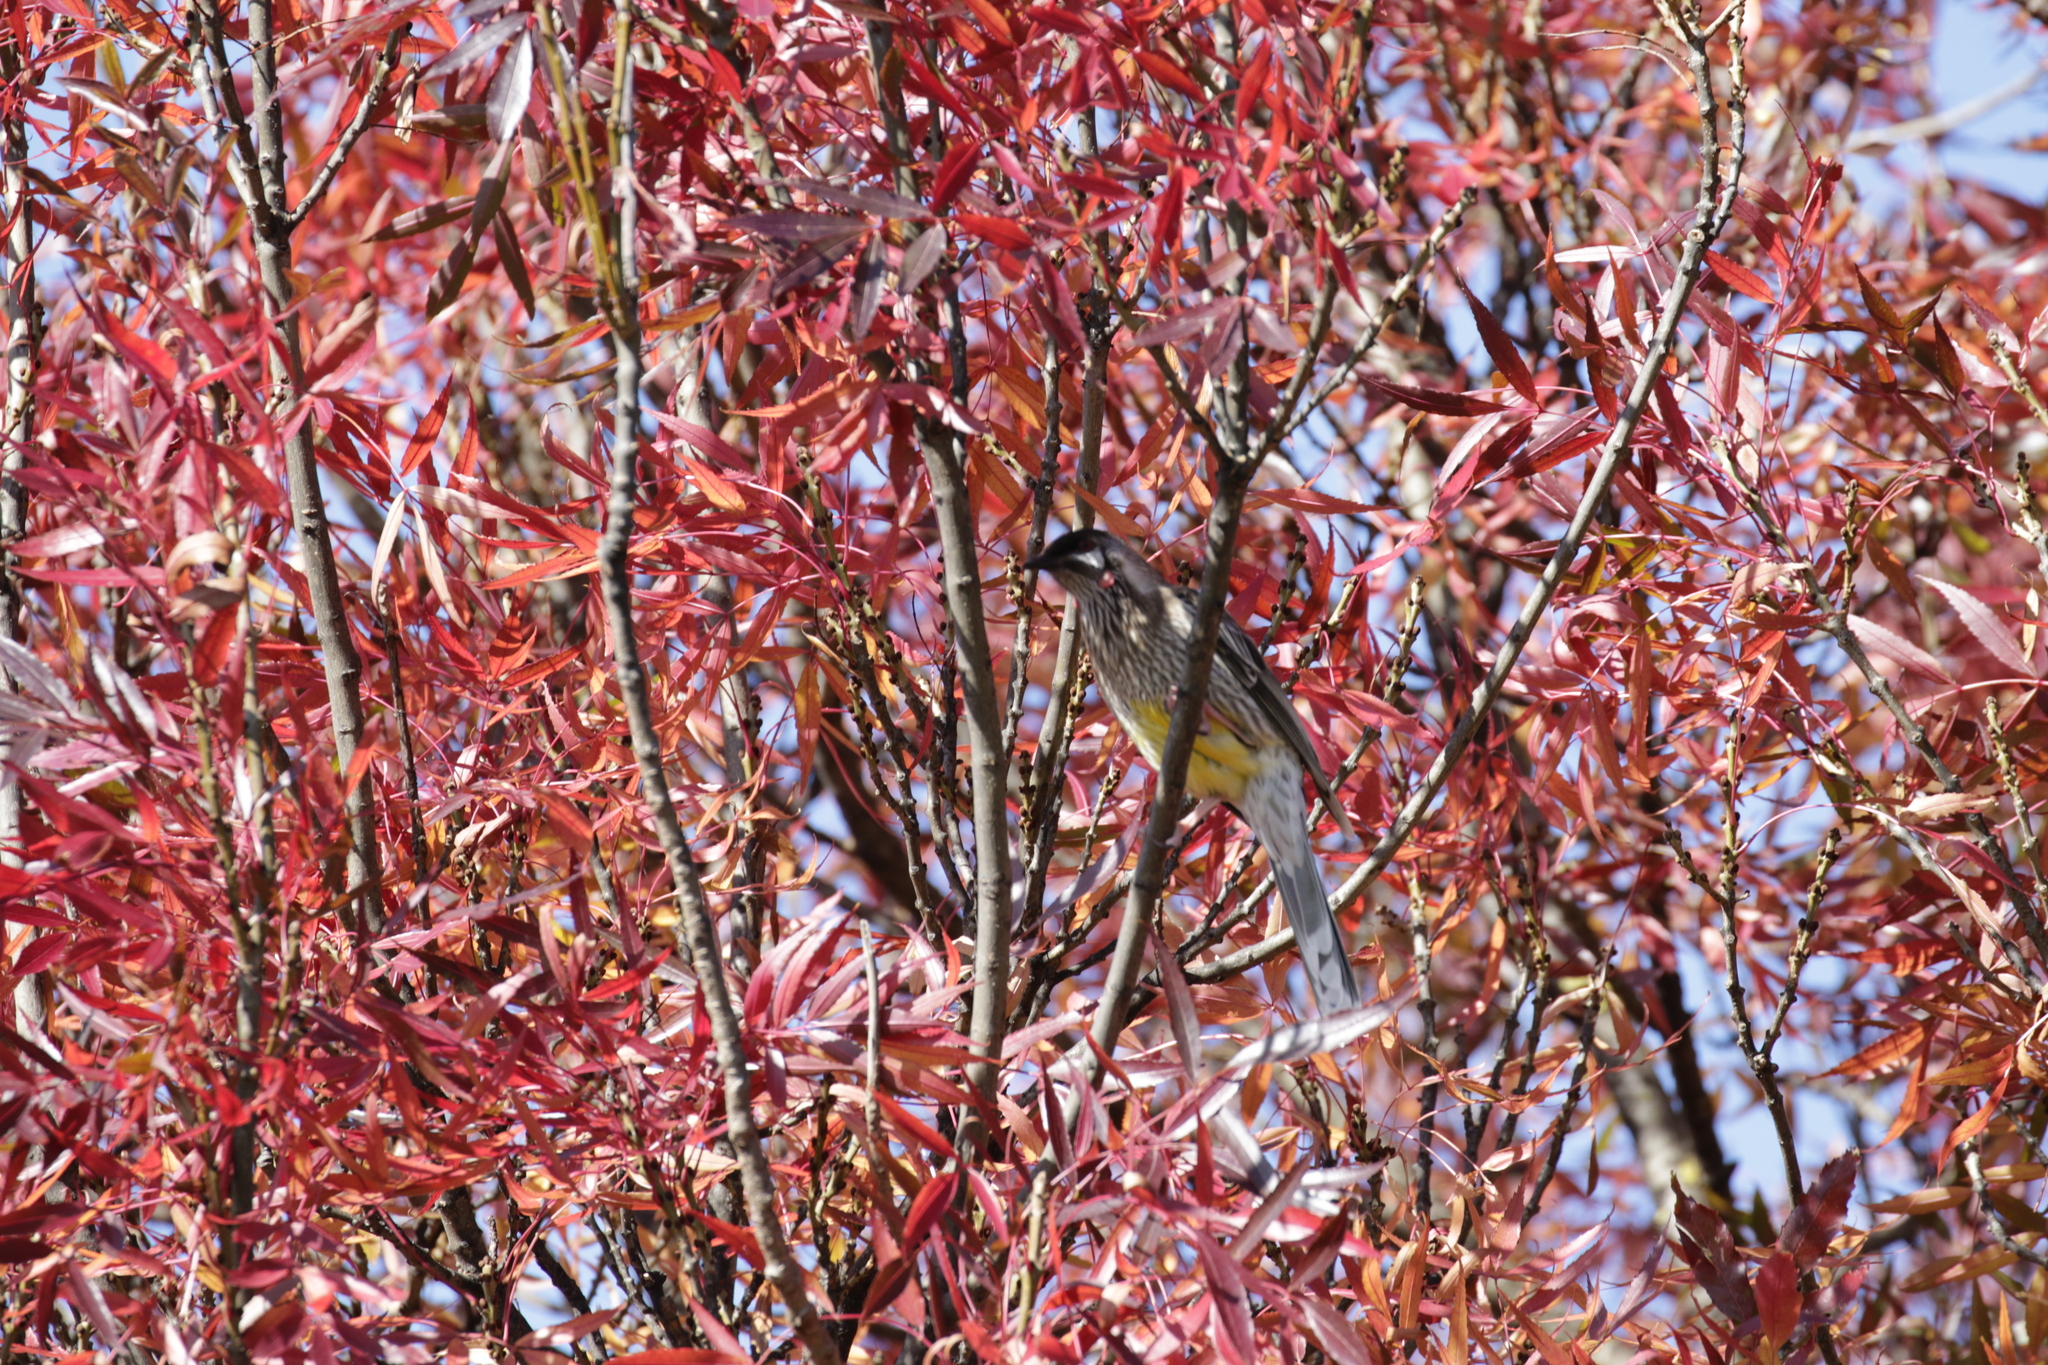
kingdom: Animalia
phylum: Chordata
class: Aves
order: Passeriformes
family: Meliphagidae
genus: Anthochaera
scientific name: Anthochaera carunculata
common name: Red wattlebird
